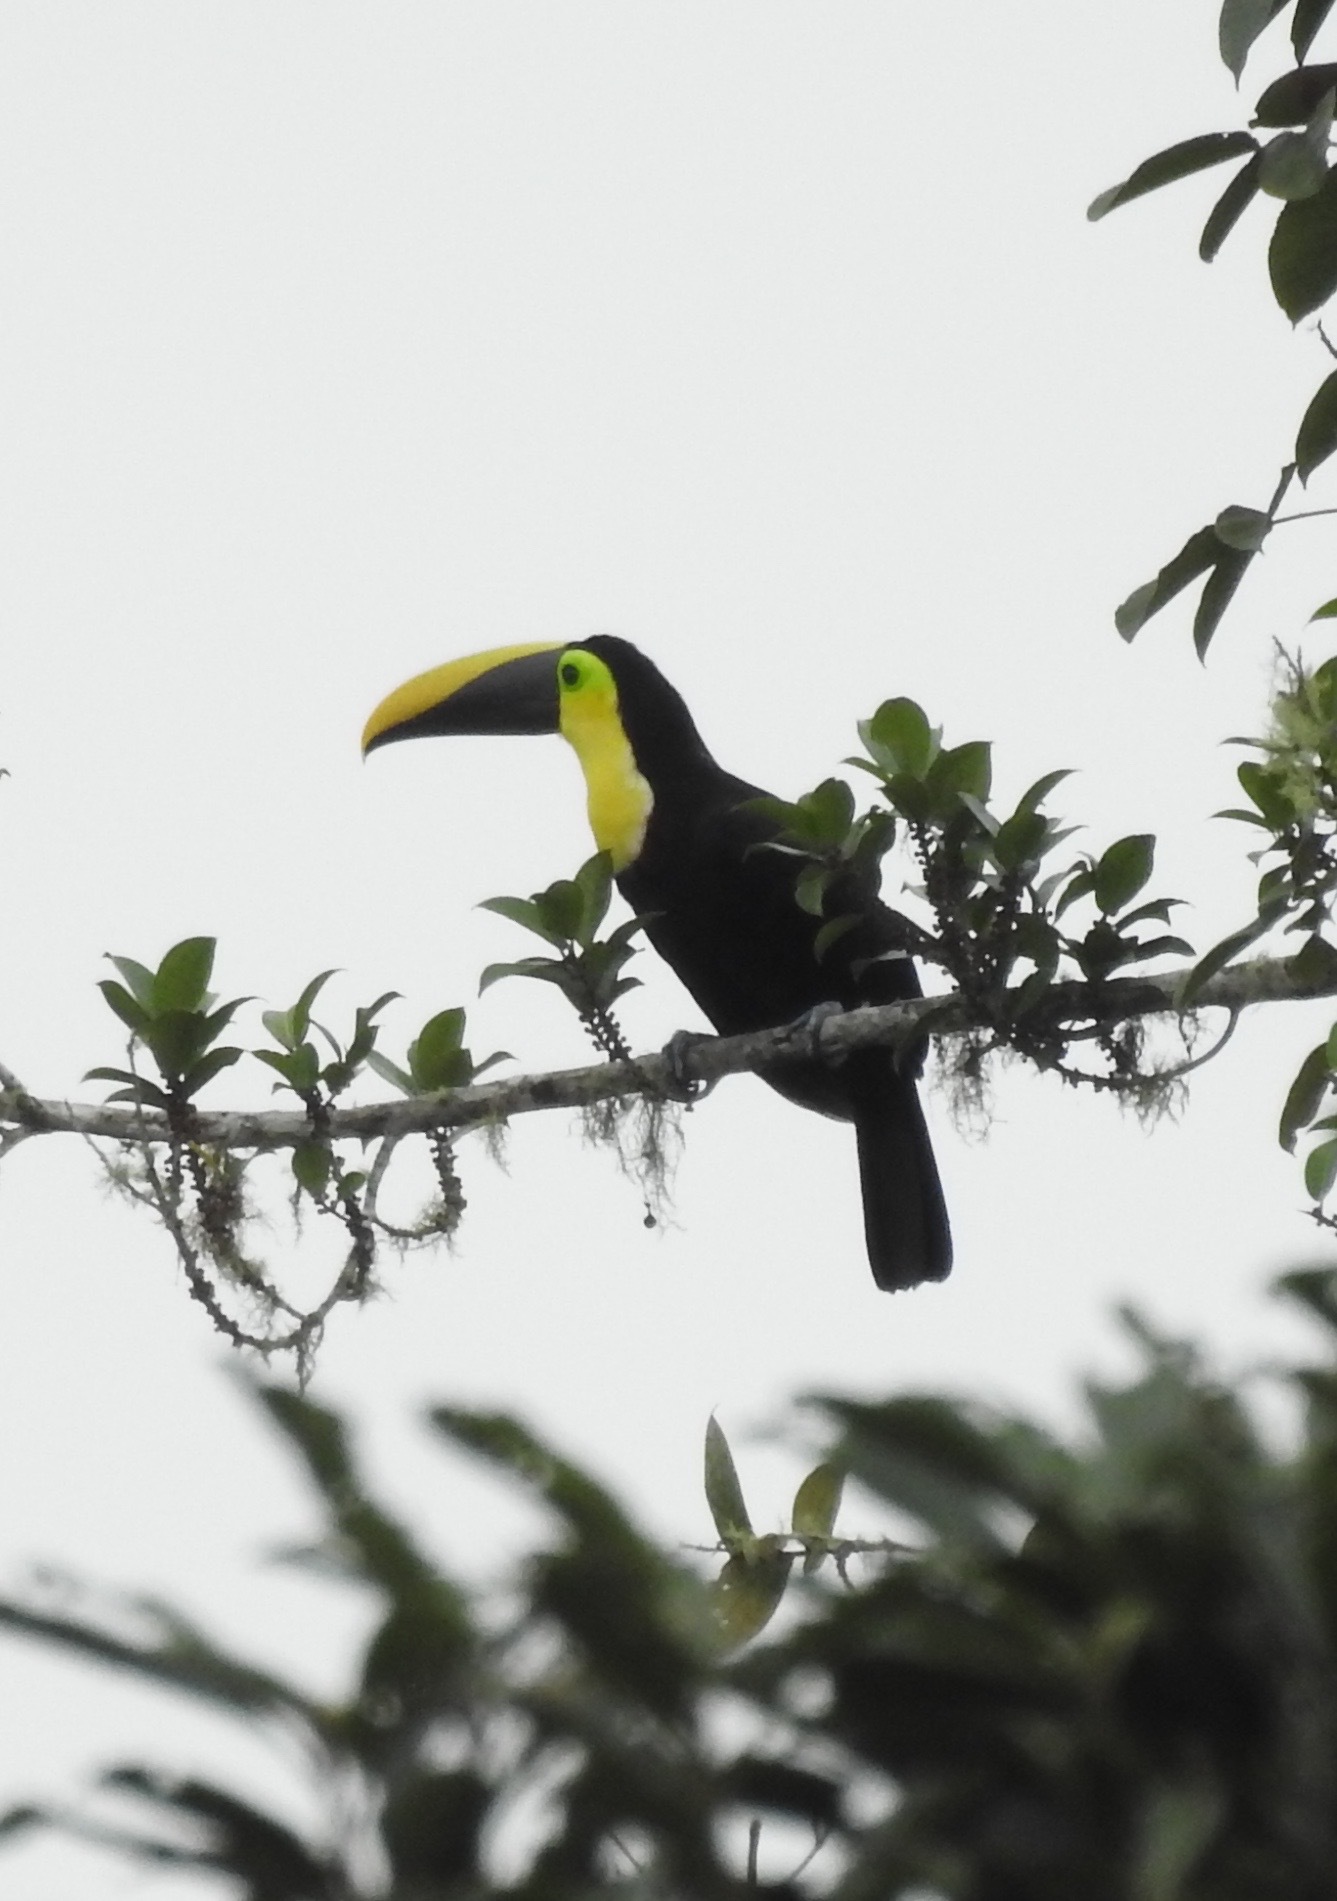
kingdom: Animalia
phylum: Chordata
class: Aves
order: Piciformes
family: Ramphastidae
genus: Ramphastos
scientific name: Ramphastos ambiguus
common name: Yellow-throated toucan
